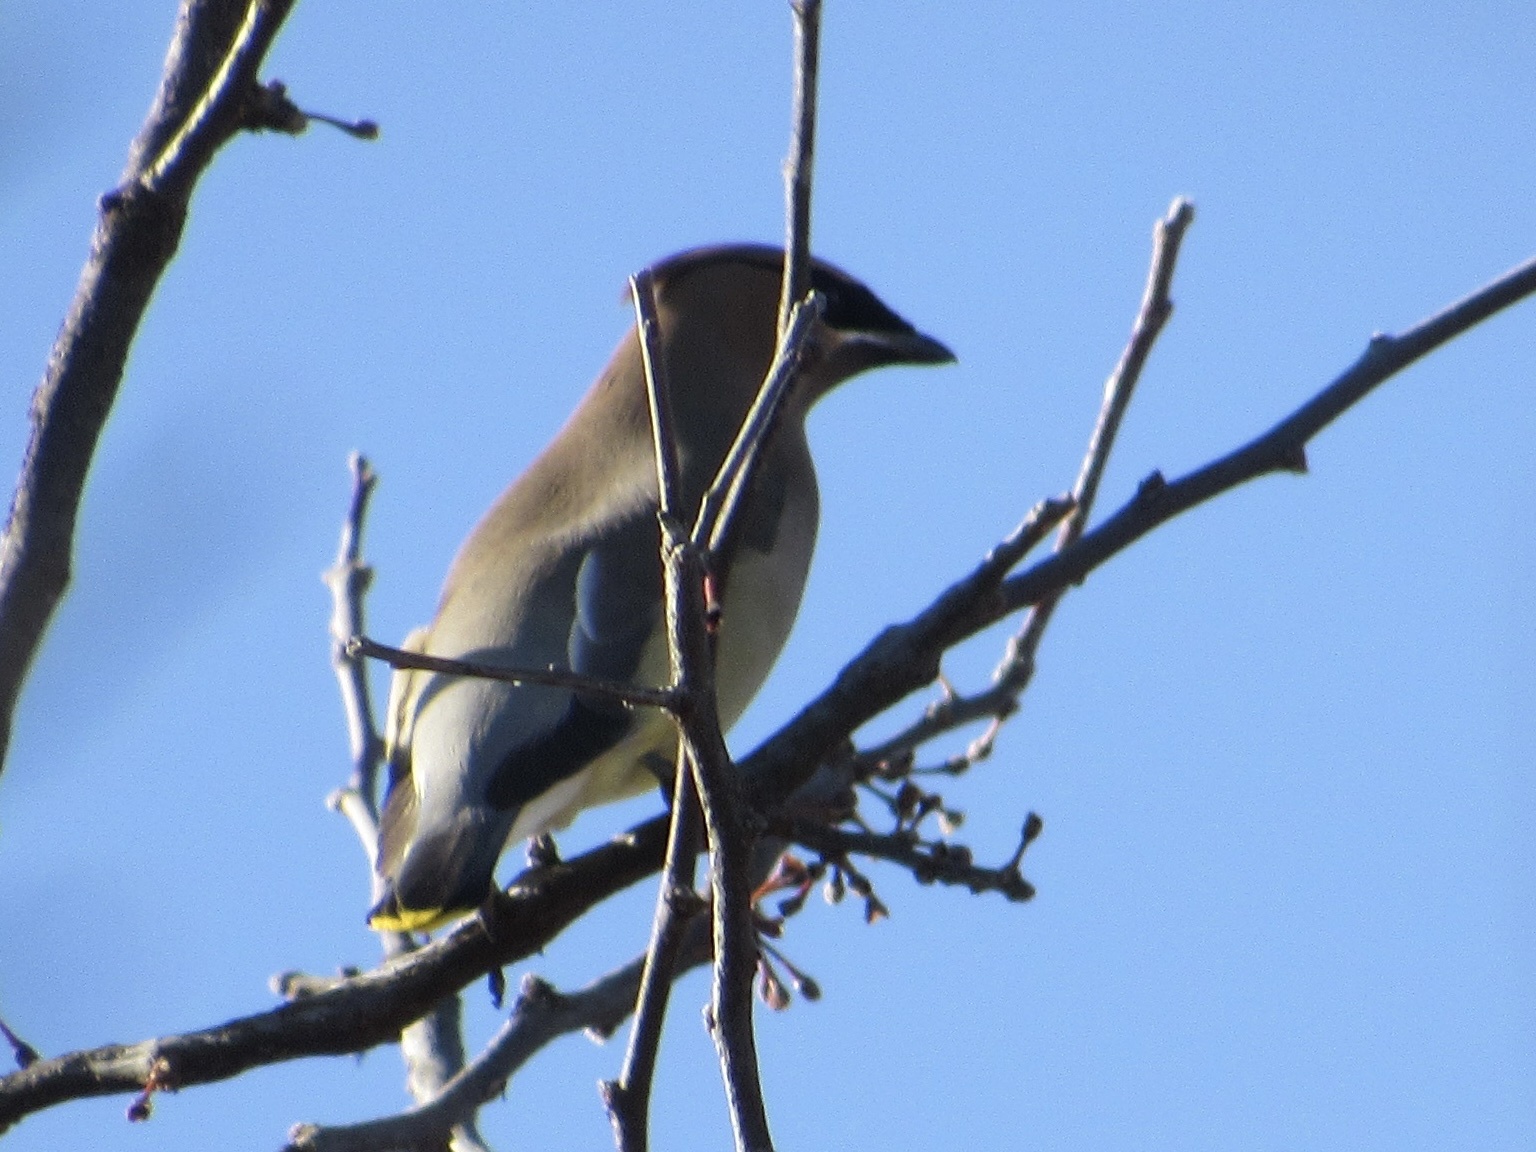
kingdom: Animalia
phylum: Chordata
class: Aves
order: Passeriformes
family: Bombycillidae
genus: Bombycilla
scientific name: Bombycilla cedrorum
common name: Cedar waxwing
